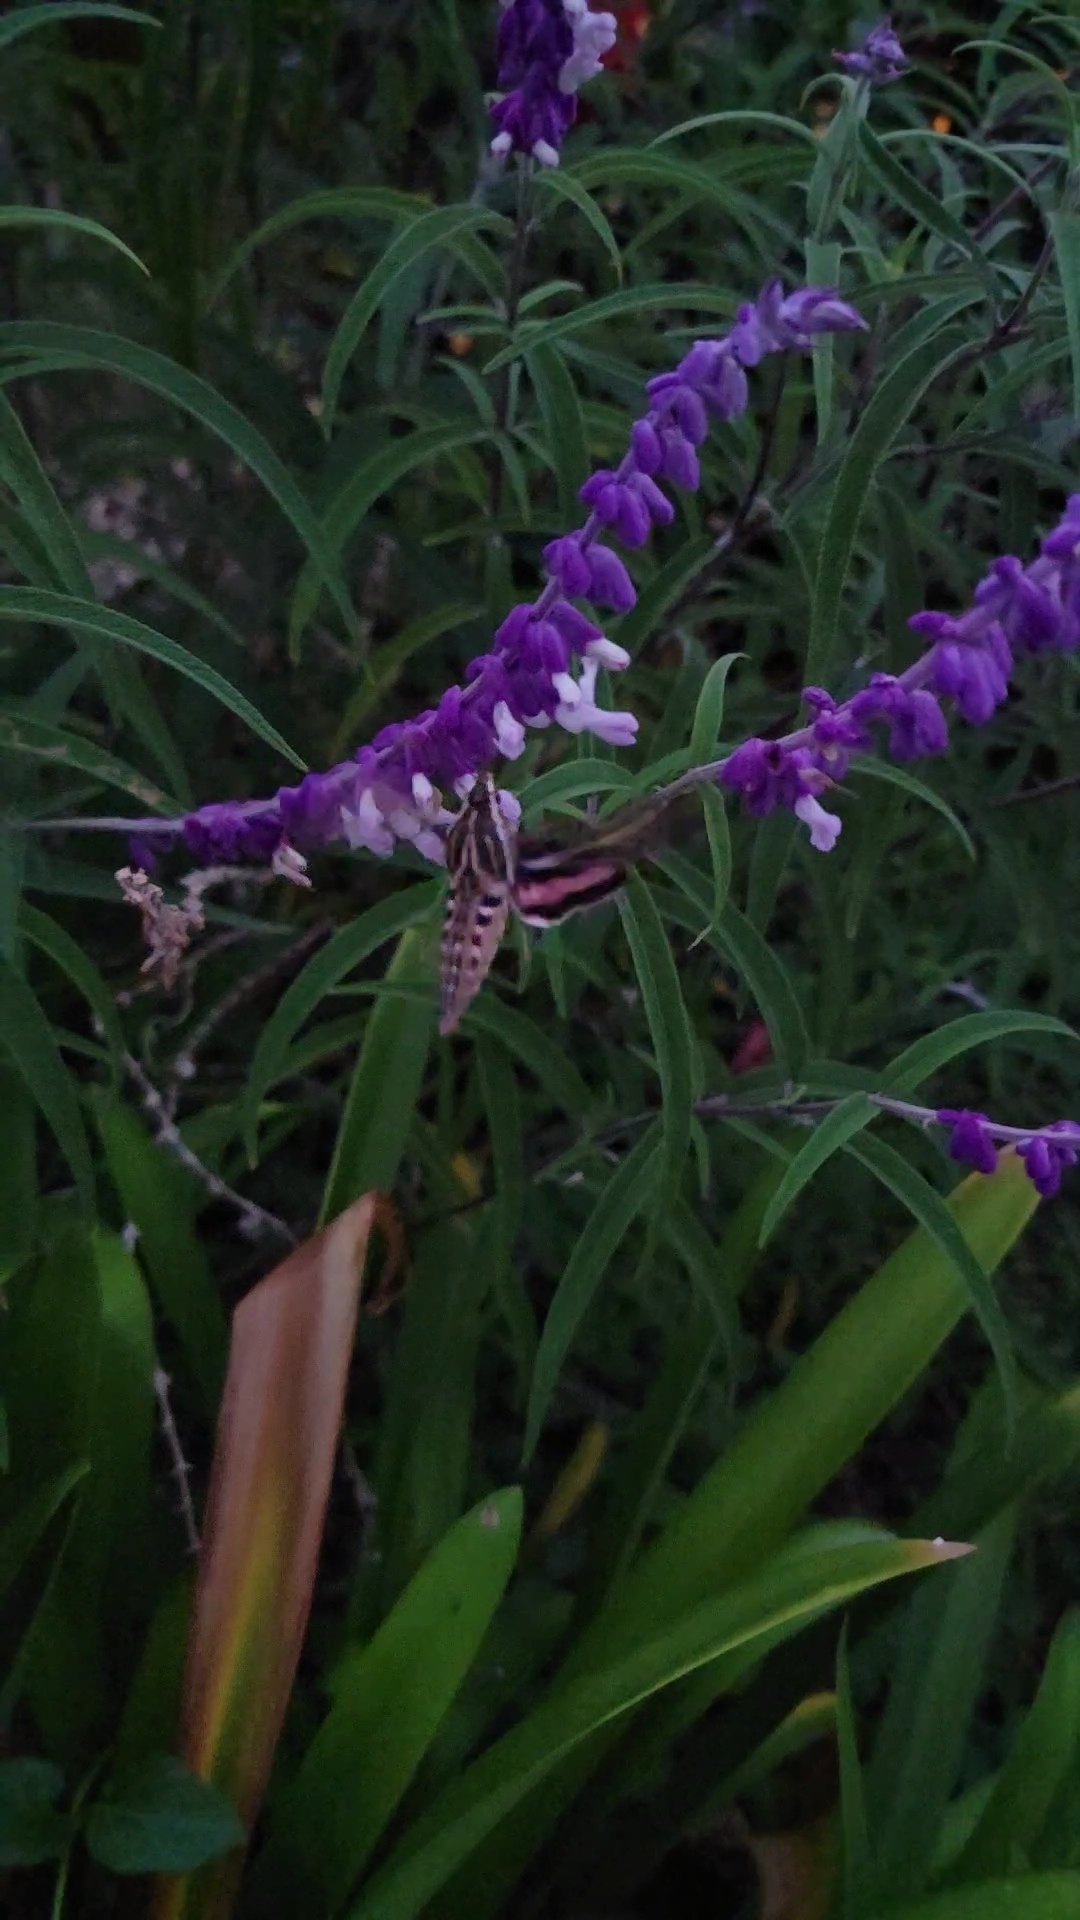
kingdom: Animalia
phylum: Arthropoda
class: Insecta
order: Lepidoptera
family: Sphingidae
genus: Hyles
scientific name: Hyles lineata
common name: White-lined sphinx
